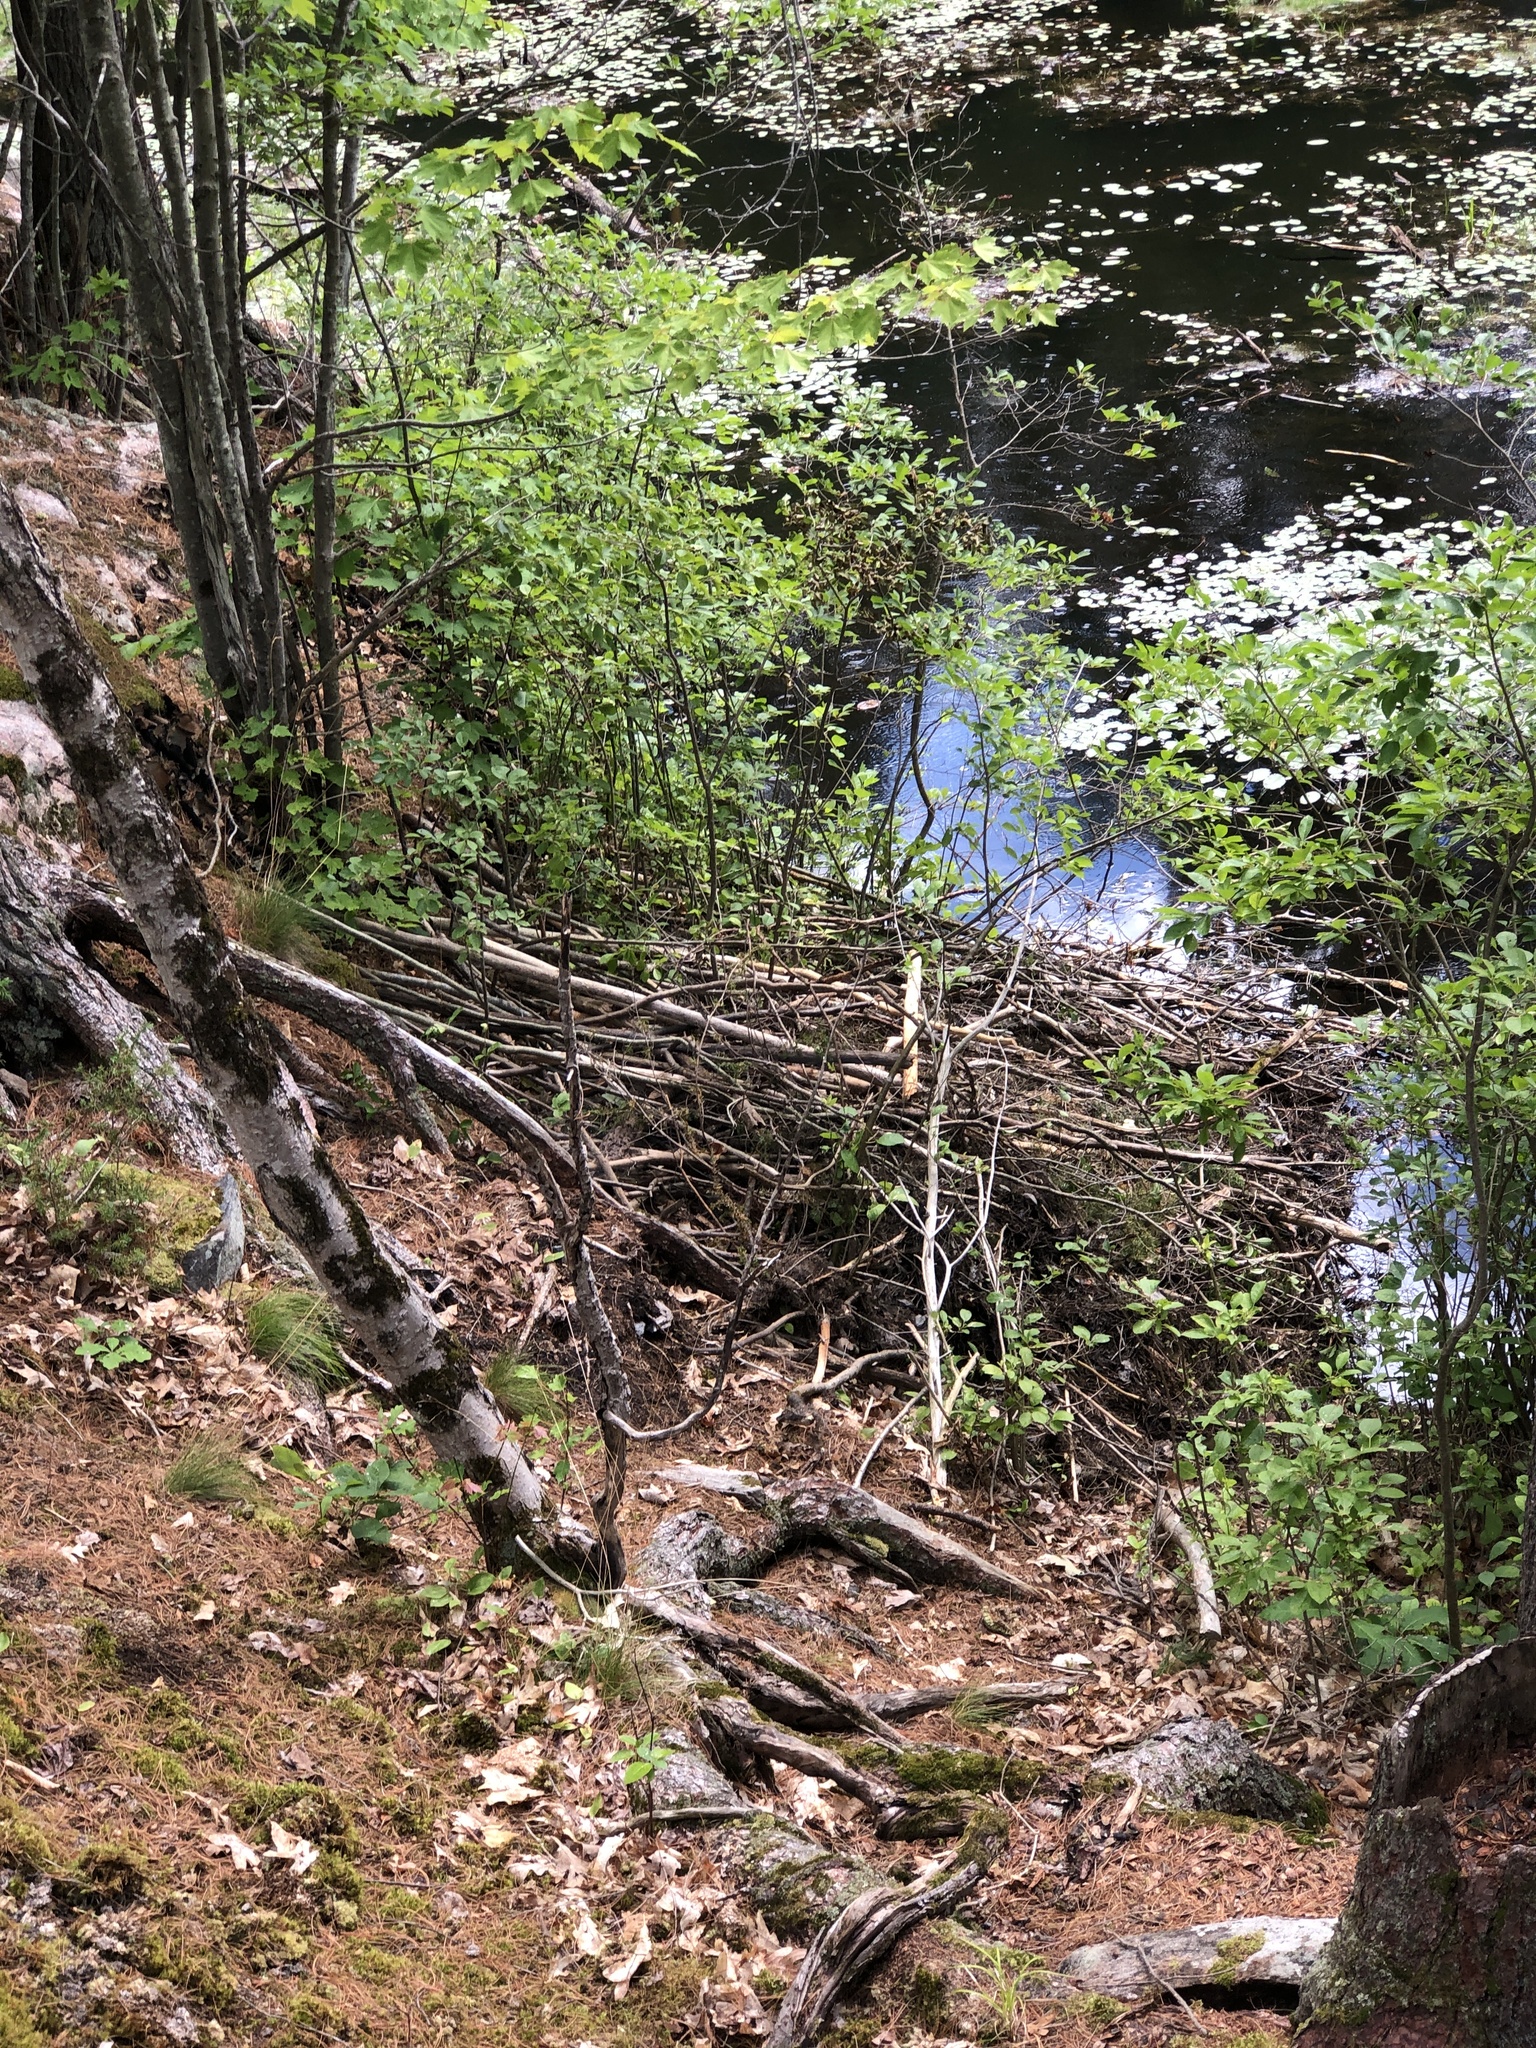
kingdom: Animalia
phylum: Chordata
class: Mammalia
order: Rodentia
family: Castoridae
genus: Castor
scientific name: Castor canadensis
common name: American beaver
